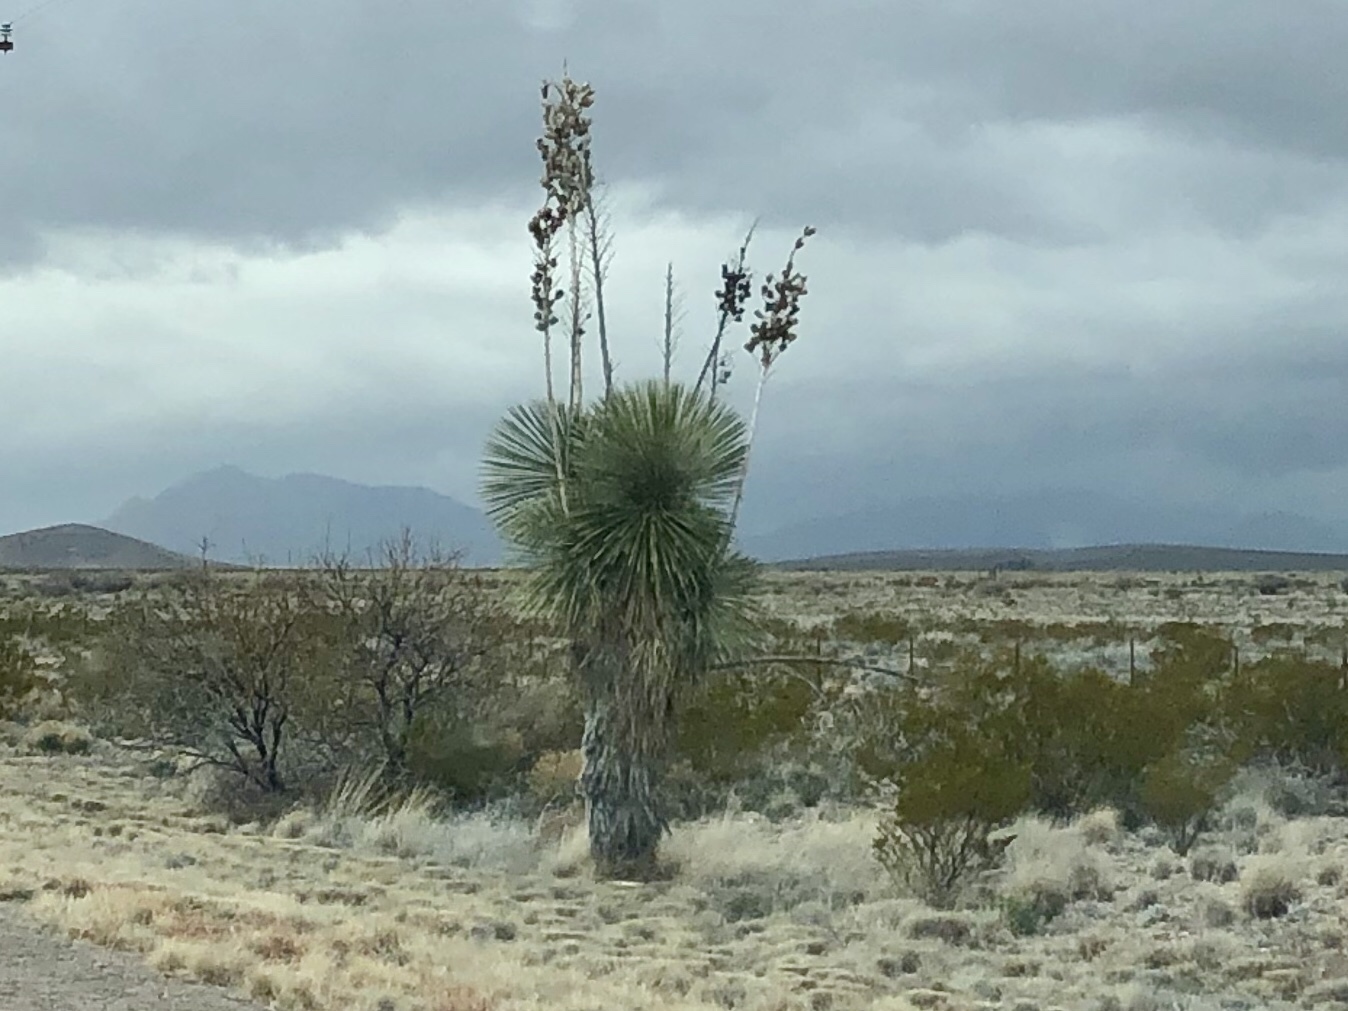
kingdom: Plantae
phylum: Tracheophyta
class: Liliopsida
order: Asparagales
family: Asparagaceae
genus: Yucca
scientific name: Yucca elata
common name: Palmella
